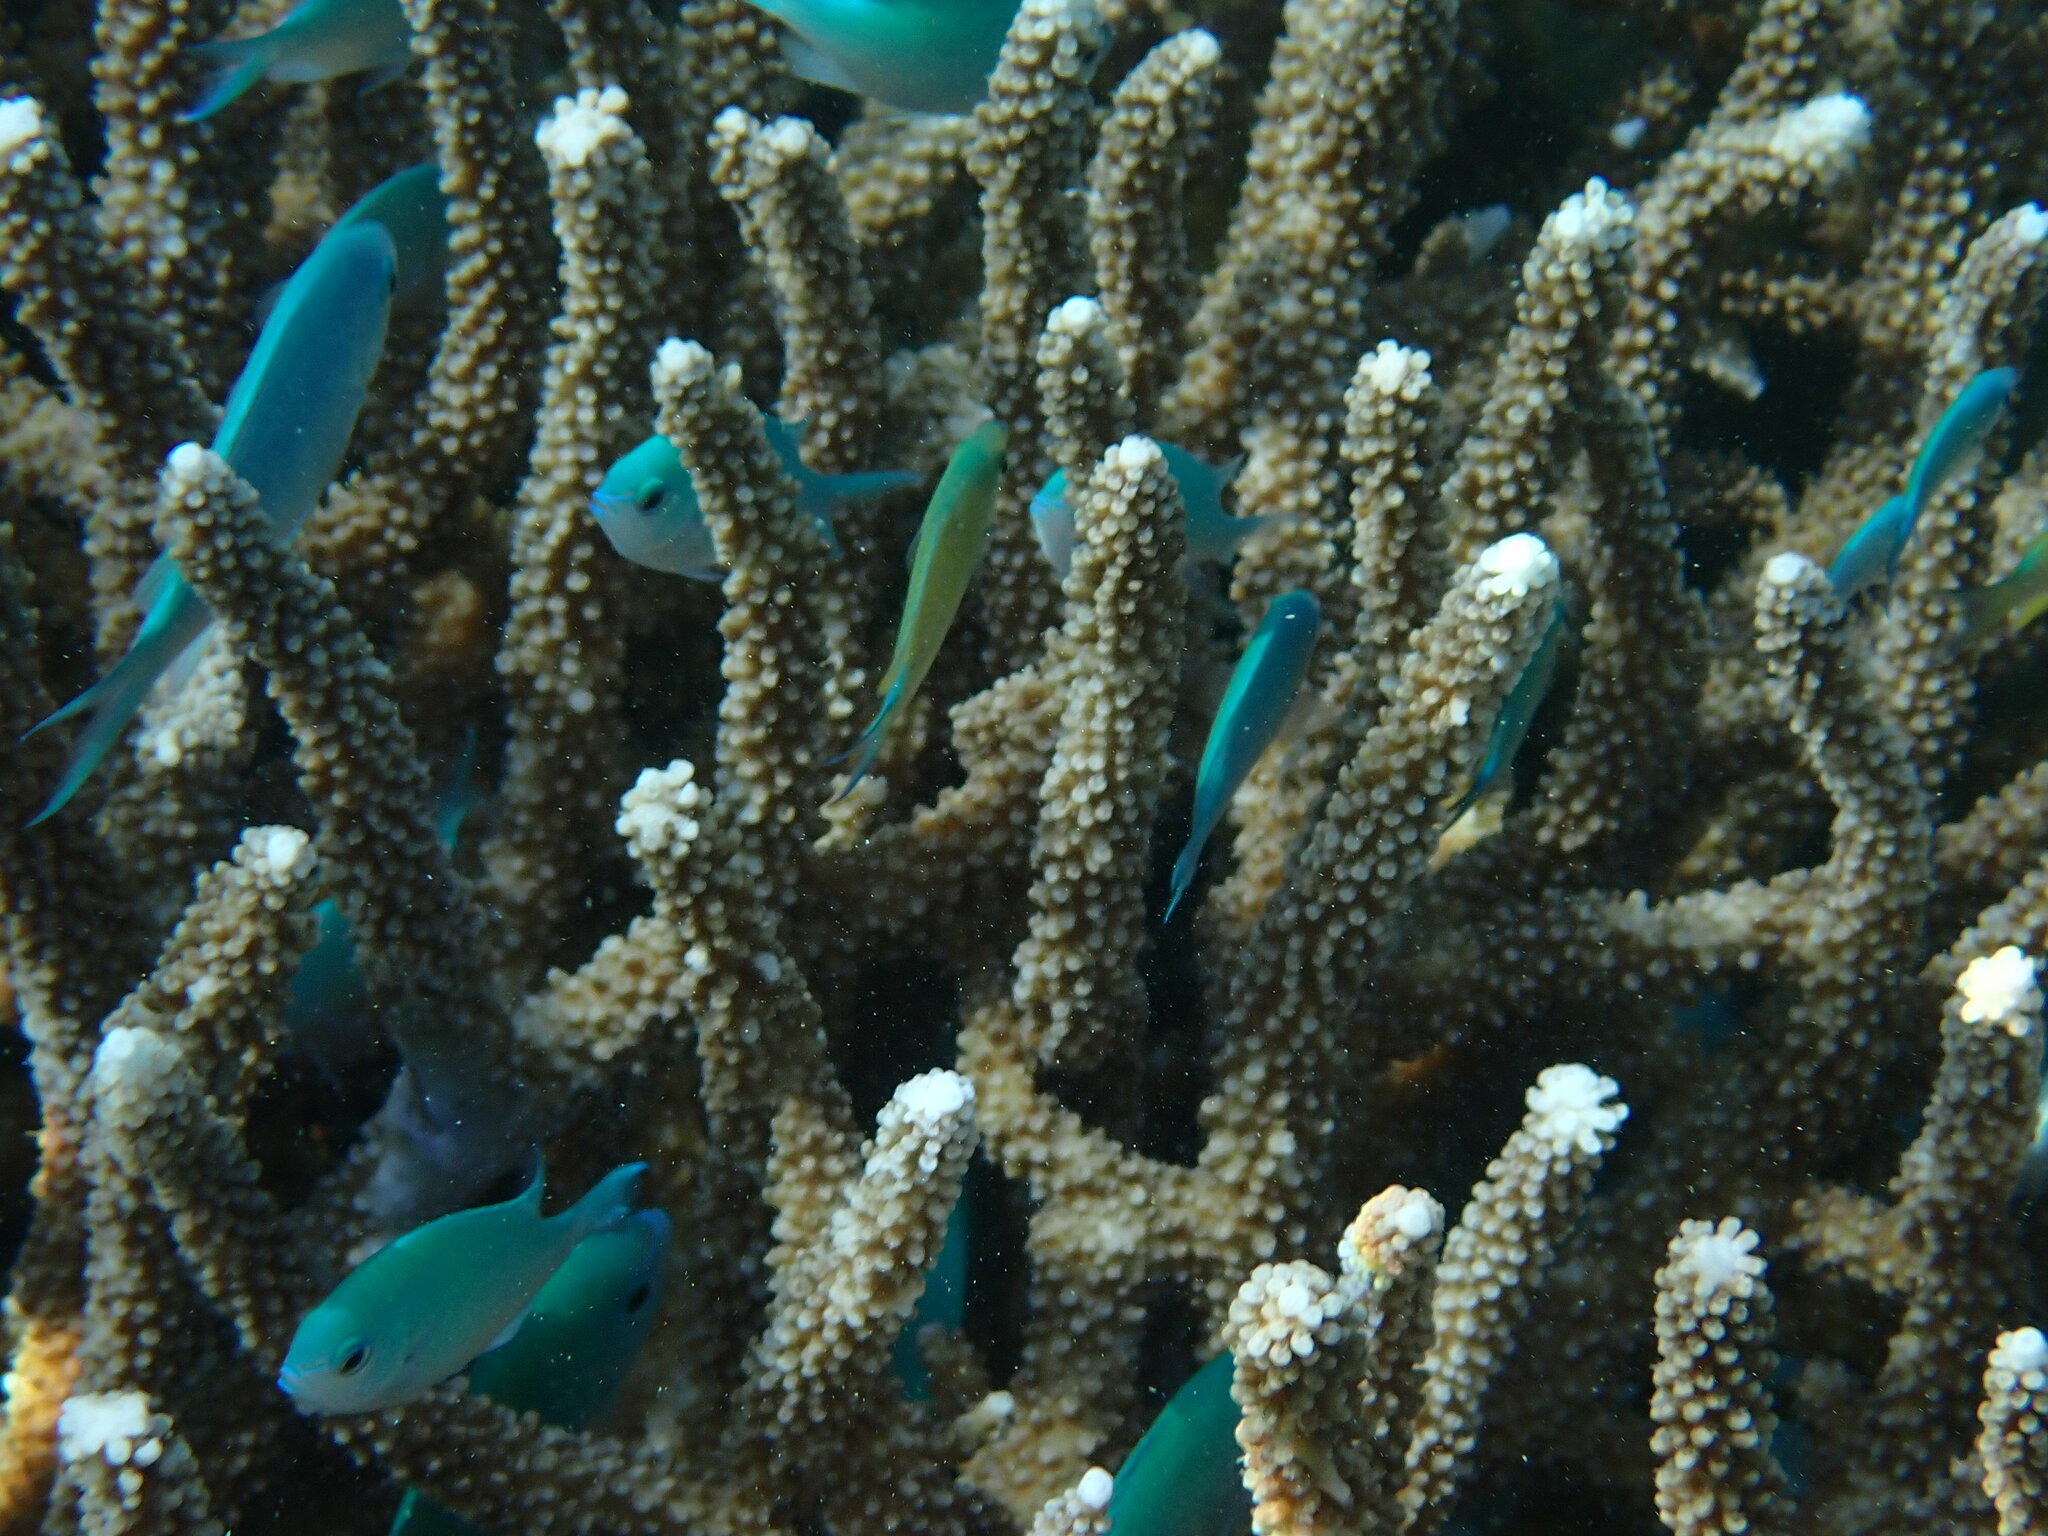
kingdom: Animalia
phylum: Chordata
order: Perciformes
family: Pomacentridae
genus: Chromis
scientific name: Chromis viridis
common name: Blue-green chromis
